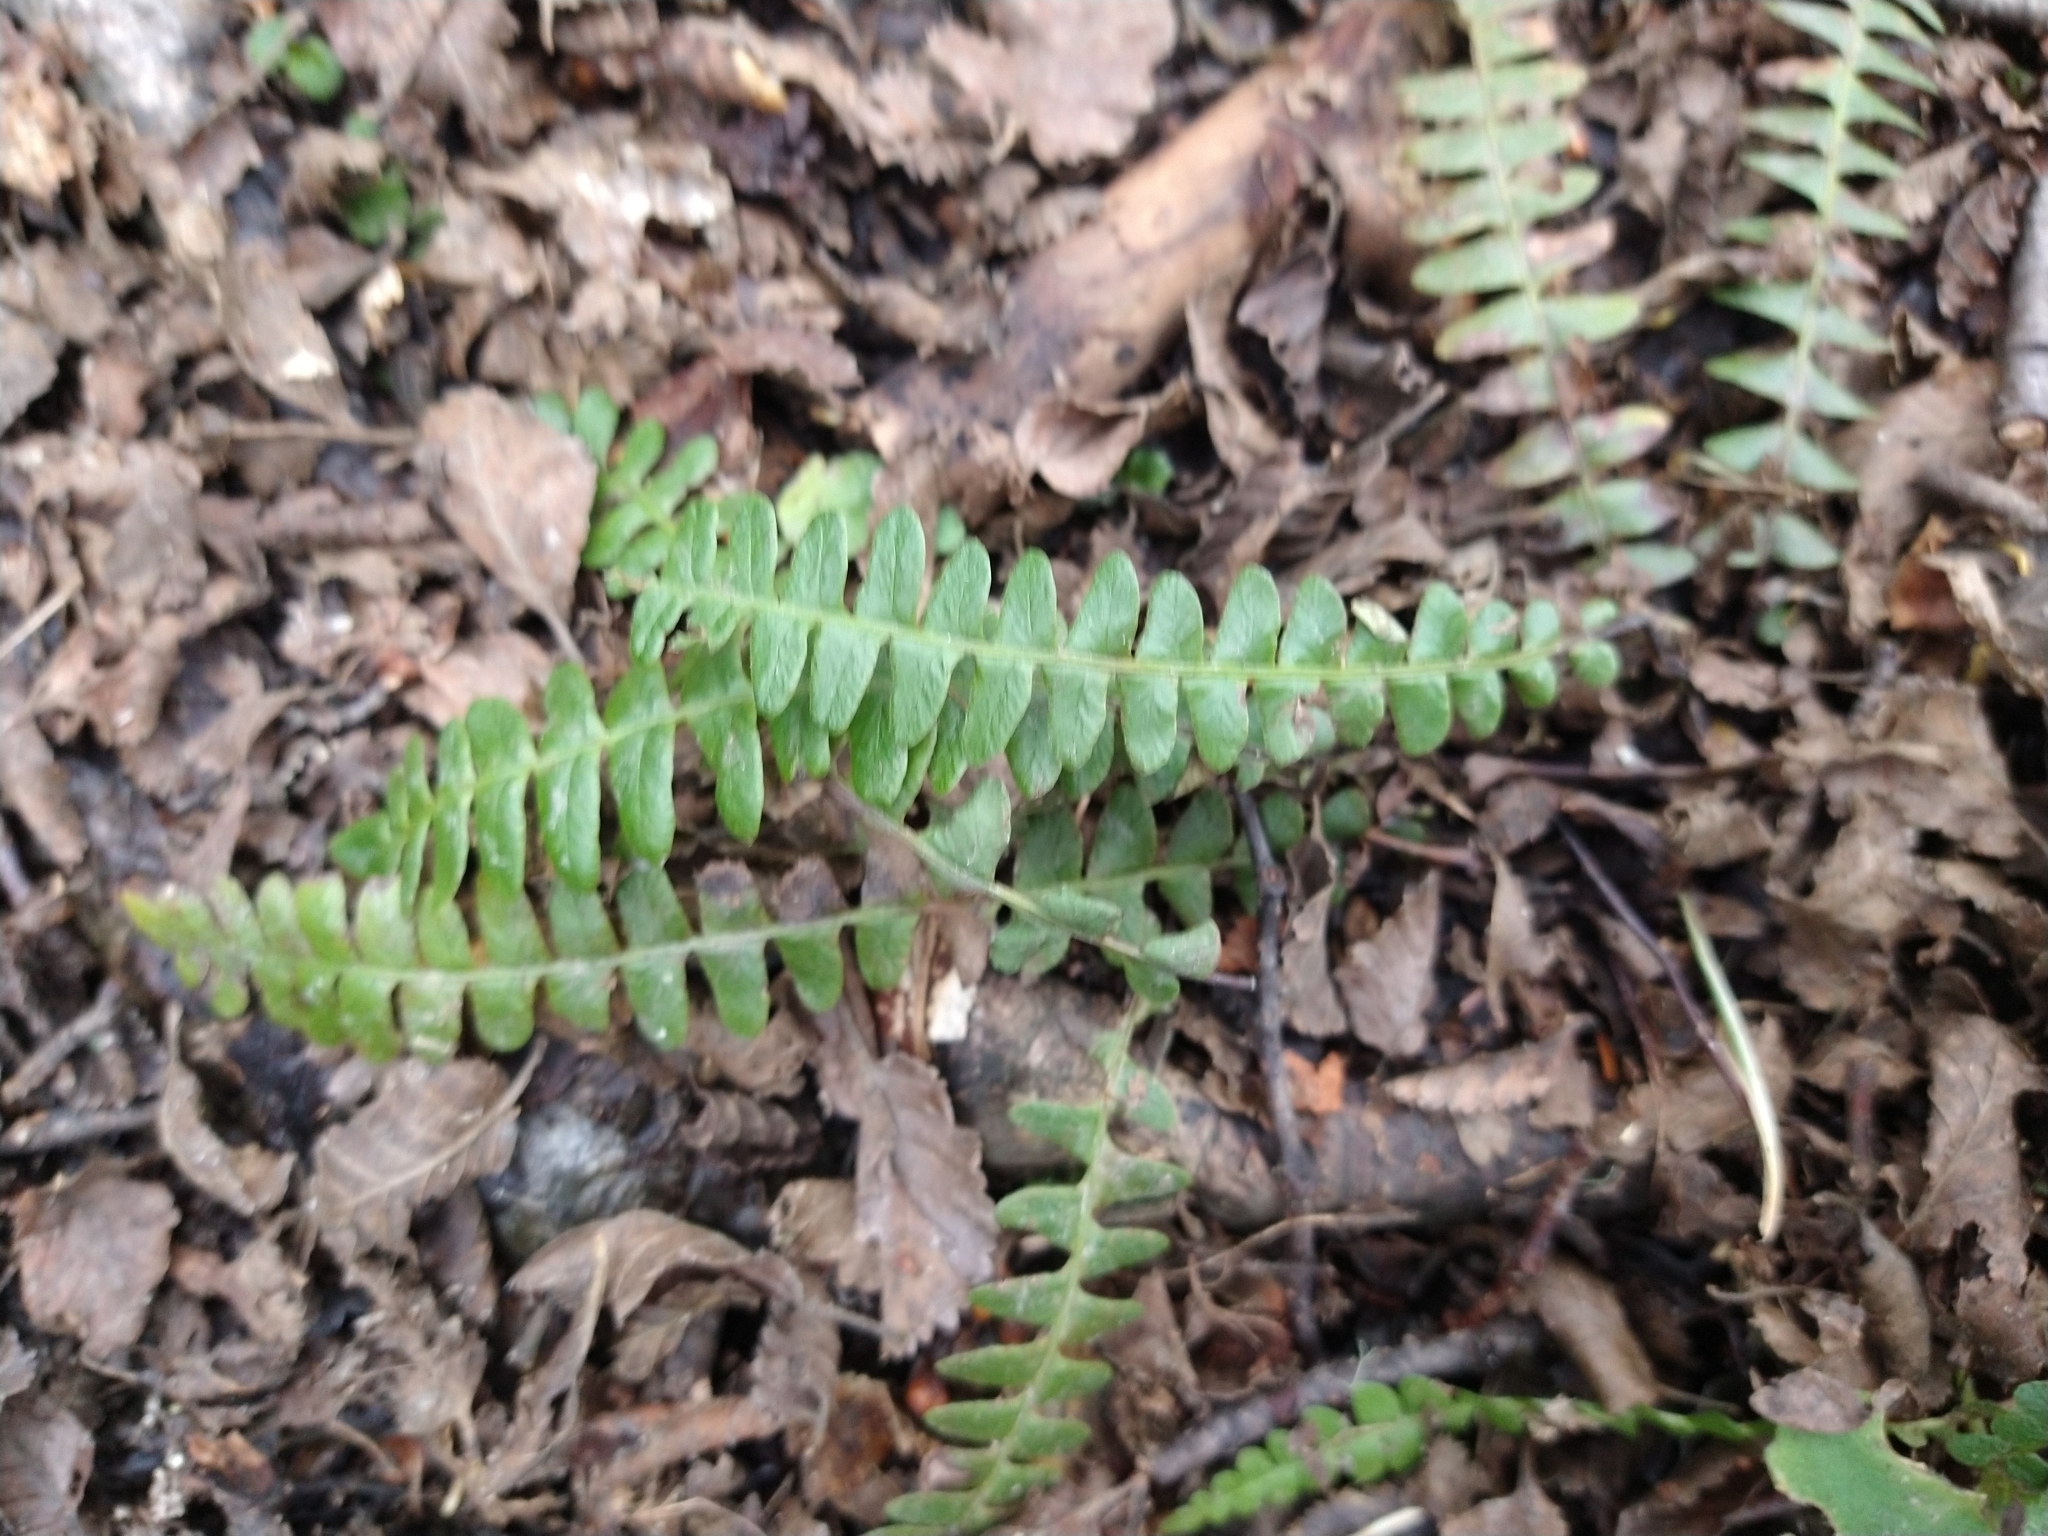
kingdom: Plantae
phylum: Tracheophyta
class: Polypodiopsida
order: Polypodiales
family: Blechnaceae
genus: Austroblechnum
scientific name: Austroblechnum penna-marina
